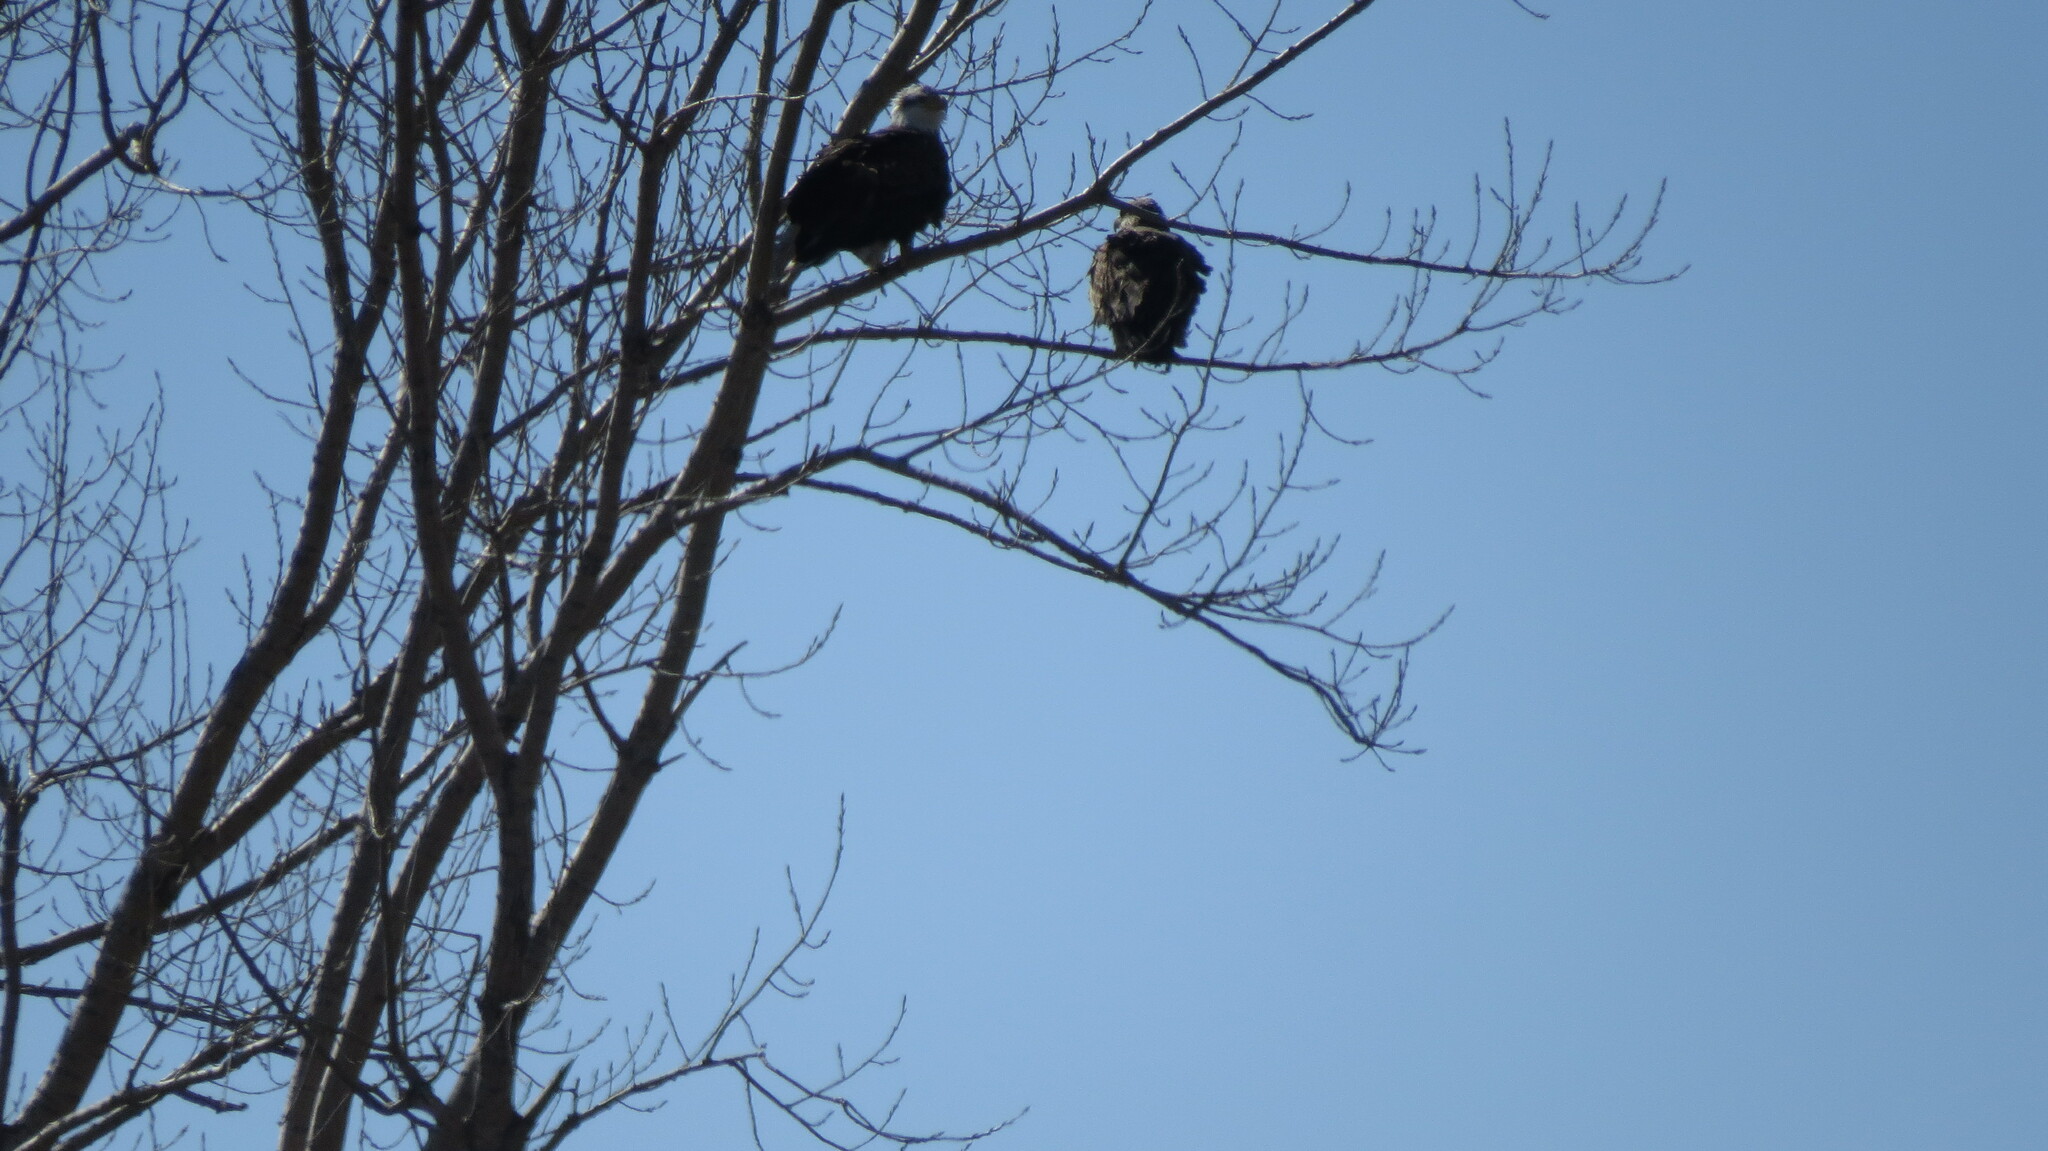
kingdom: Animalia
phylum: Chordata
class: Aves
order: Accipitriformes
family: Accipitridae
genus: Haliaeetus
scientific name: Haliaeetus leucocephalus
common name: Bald eagle
